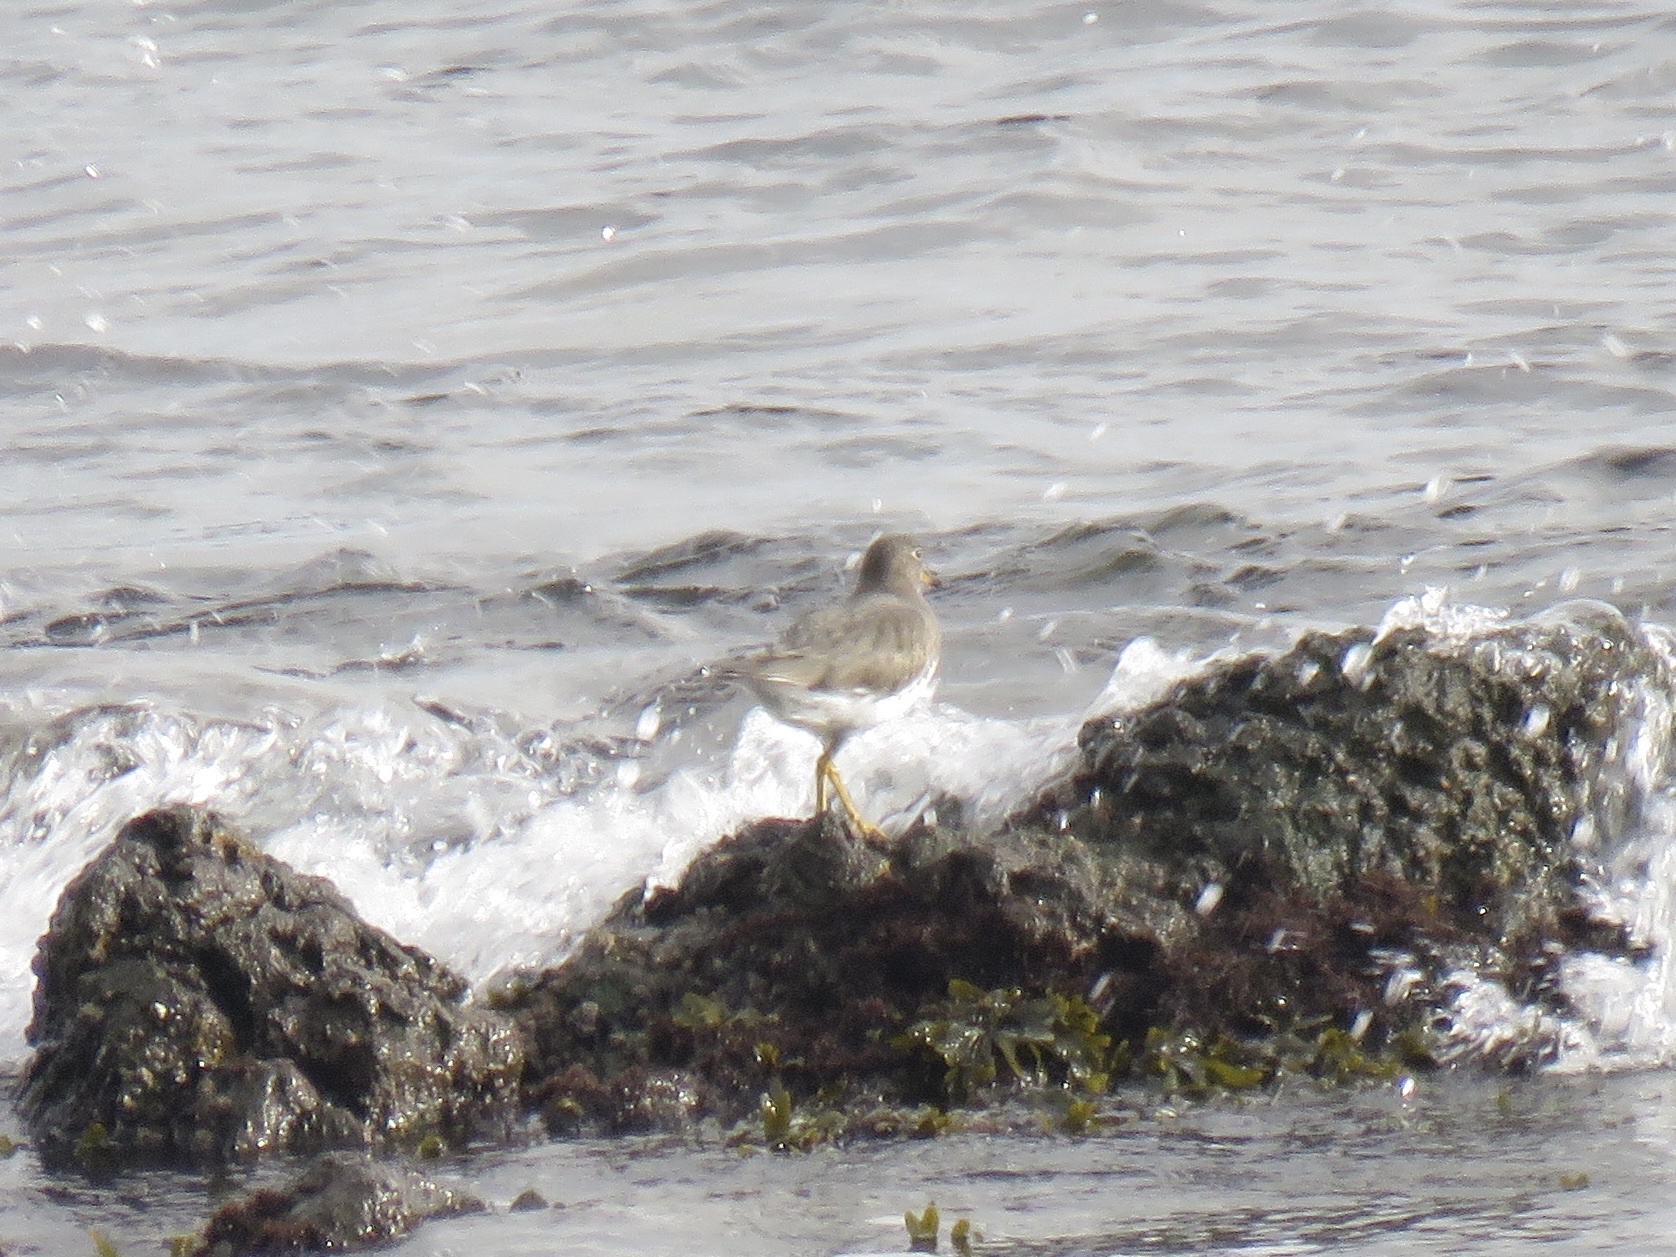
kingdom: Animalia
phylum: Chordata
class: Aves
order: Charadriiformes
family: Scolopacidae
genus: Calidris
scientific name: Calidris virgata
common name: Surfbird
